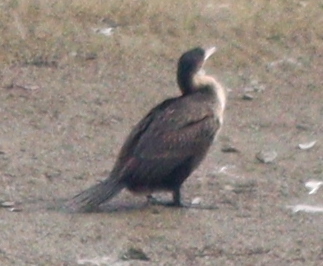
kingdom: Animalia
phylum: Chordata
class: Aves
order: Suliformes
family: Phalacrocoracidae
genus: Phalacrocorax
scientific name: Phalacrocorax carbo
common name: Great cormorant
